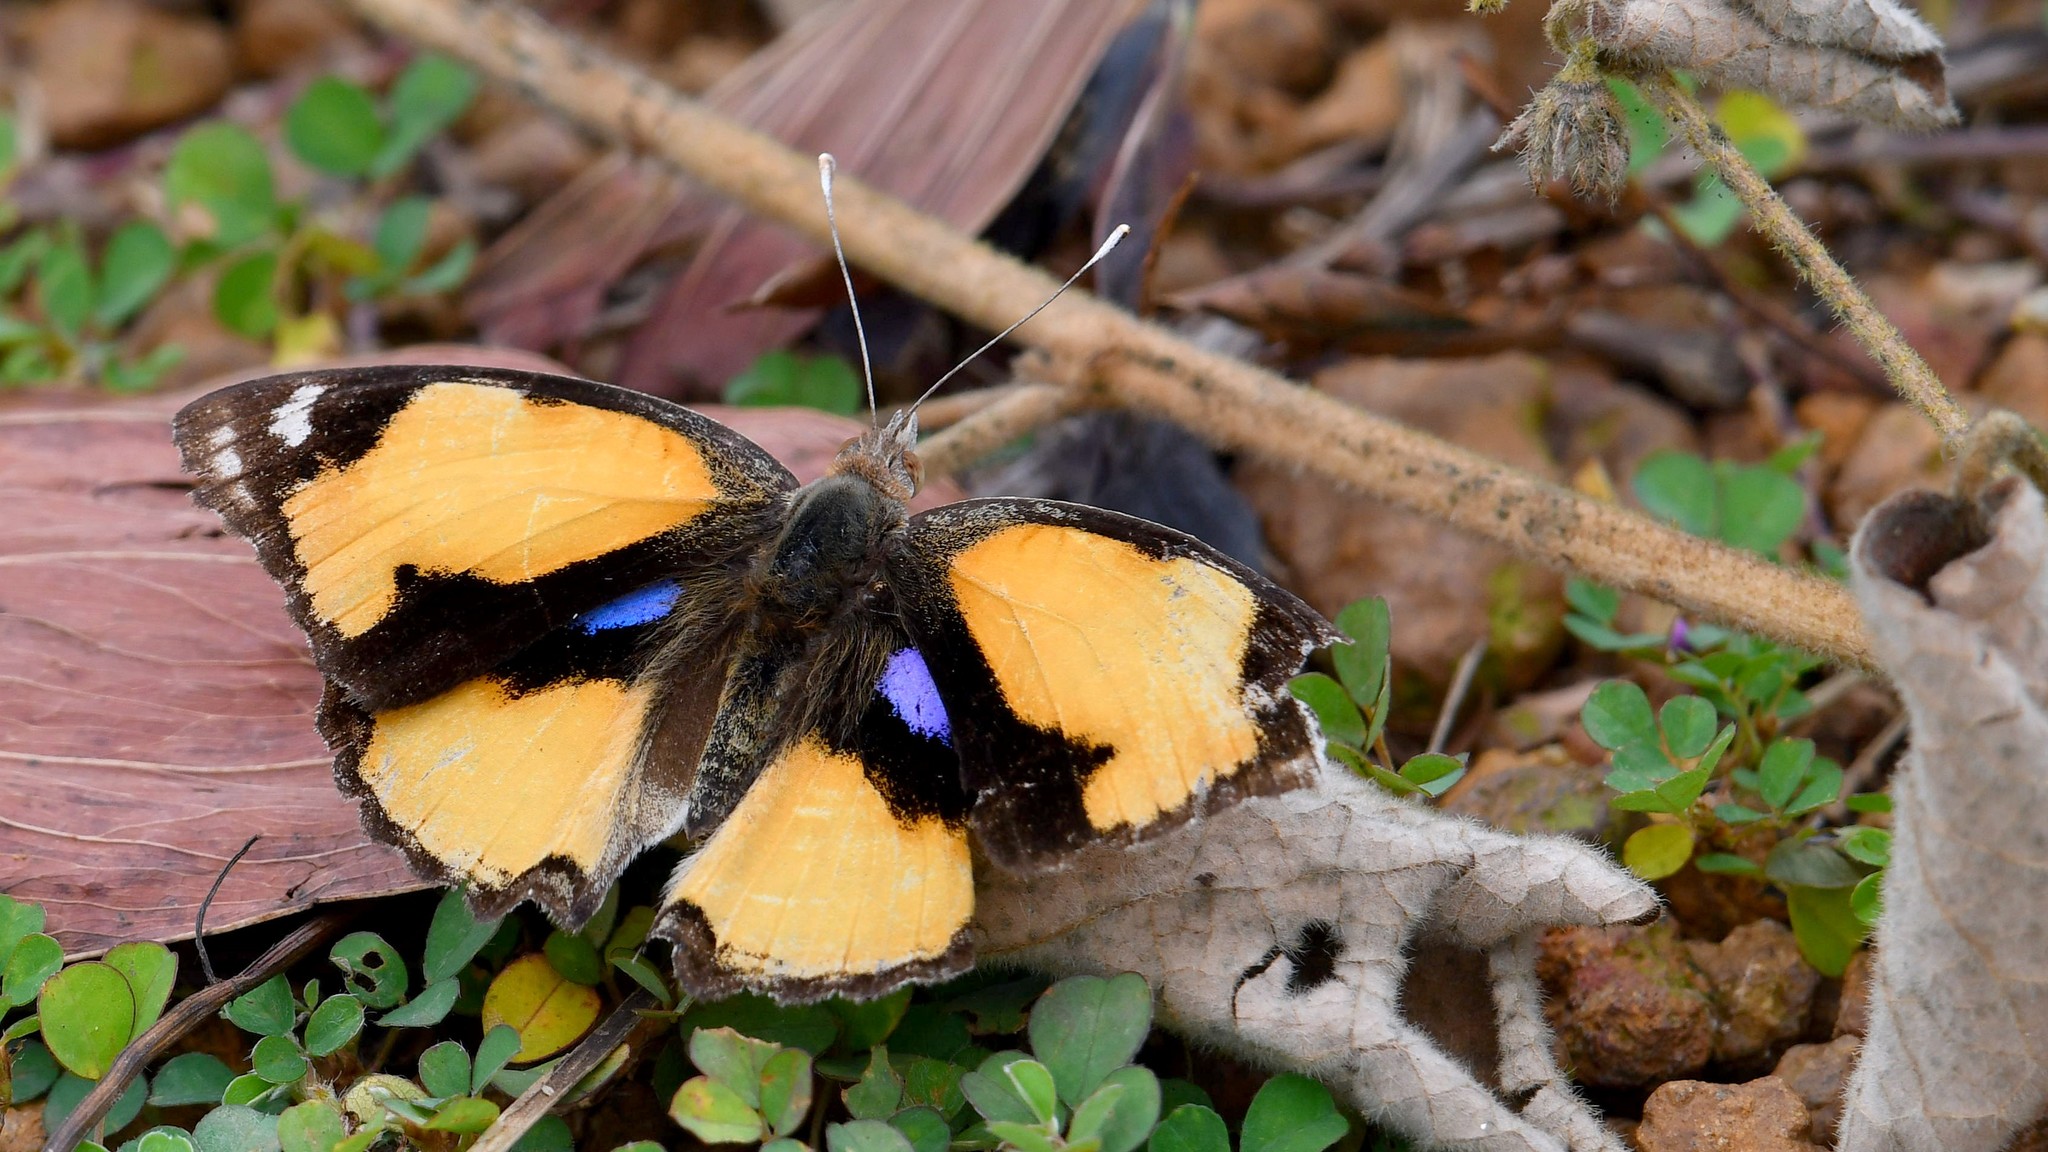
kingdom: Animalia
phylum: Arthropoda
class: Insecta
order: Lepidoptera
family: Nymphalidae
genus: Junonia
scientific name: Junonia hierta
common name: Yellow pansy
